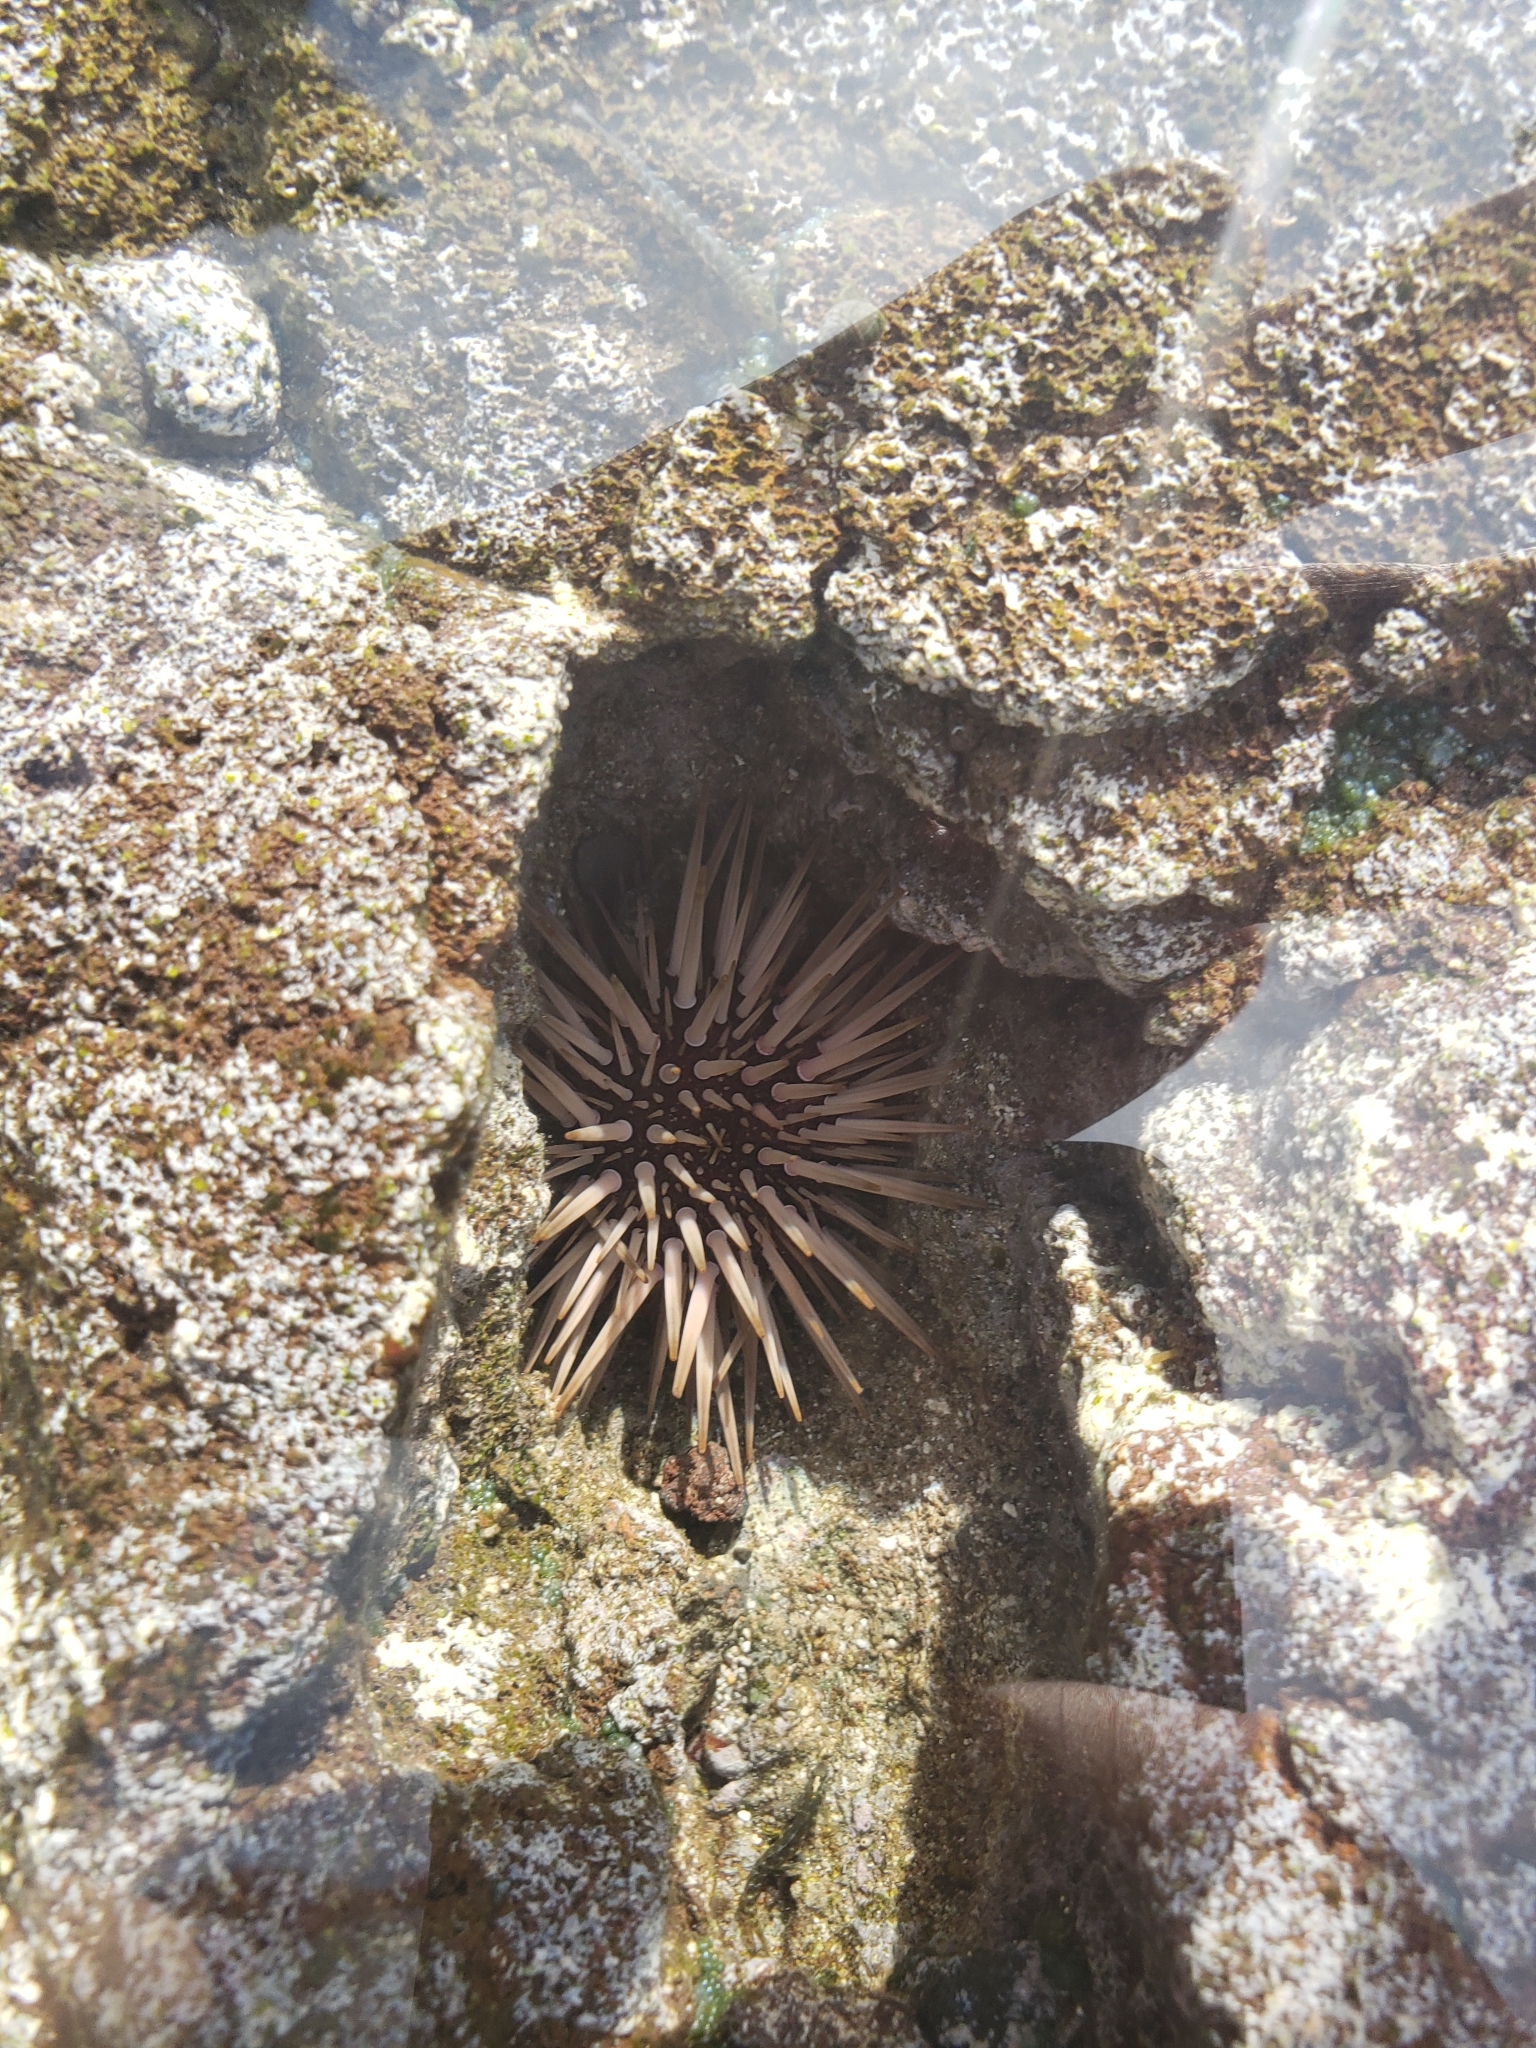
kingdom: Animalia
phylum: Echinodermata
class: Echinoidea
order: Camarodonta
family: Echinometridae
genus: Echinometra
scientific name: Echinometra mathaei
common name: Rock-boring urchin
